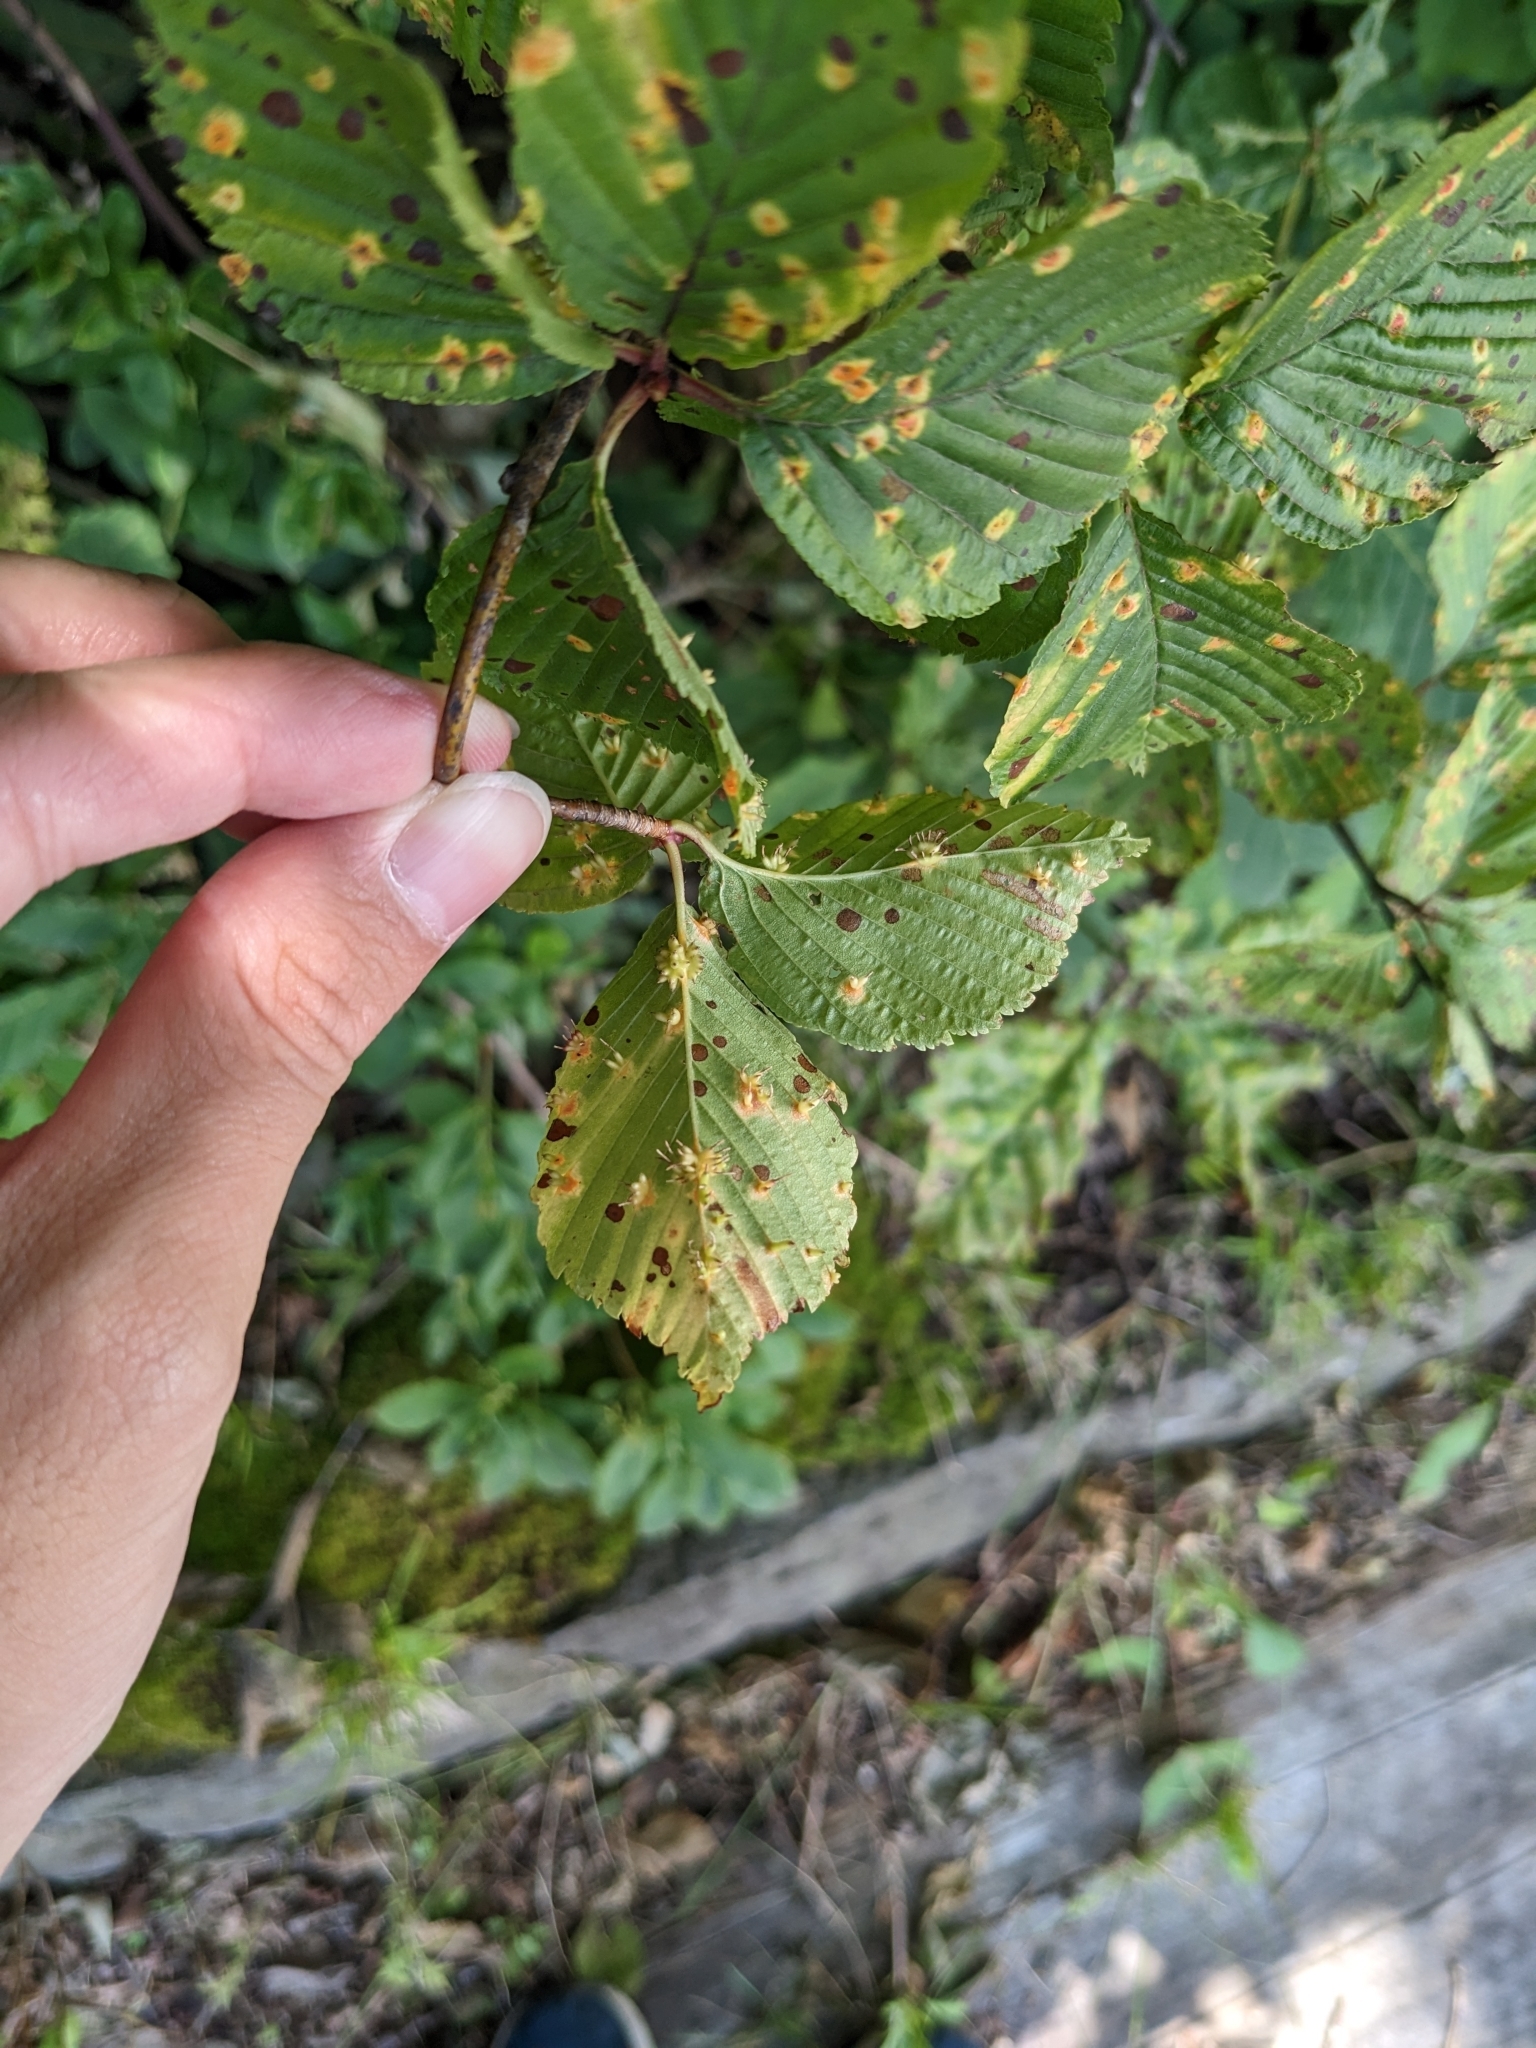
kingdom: Plantae
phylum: Tracheophyta
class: Magnoliopsida
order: Rosales
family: Rosaceae
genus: Sorbus
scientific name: Sorbus alnifolia
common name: Mountain-ash
